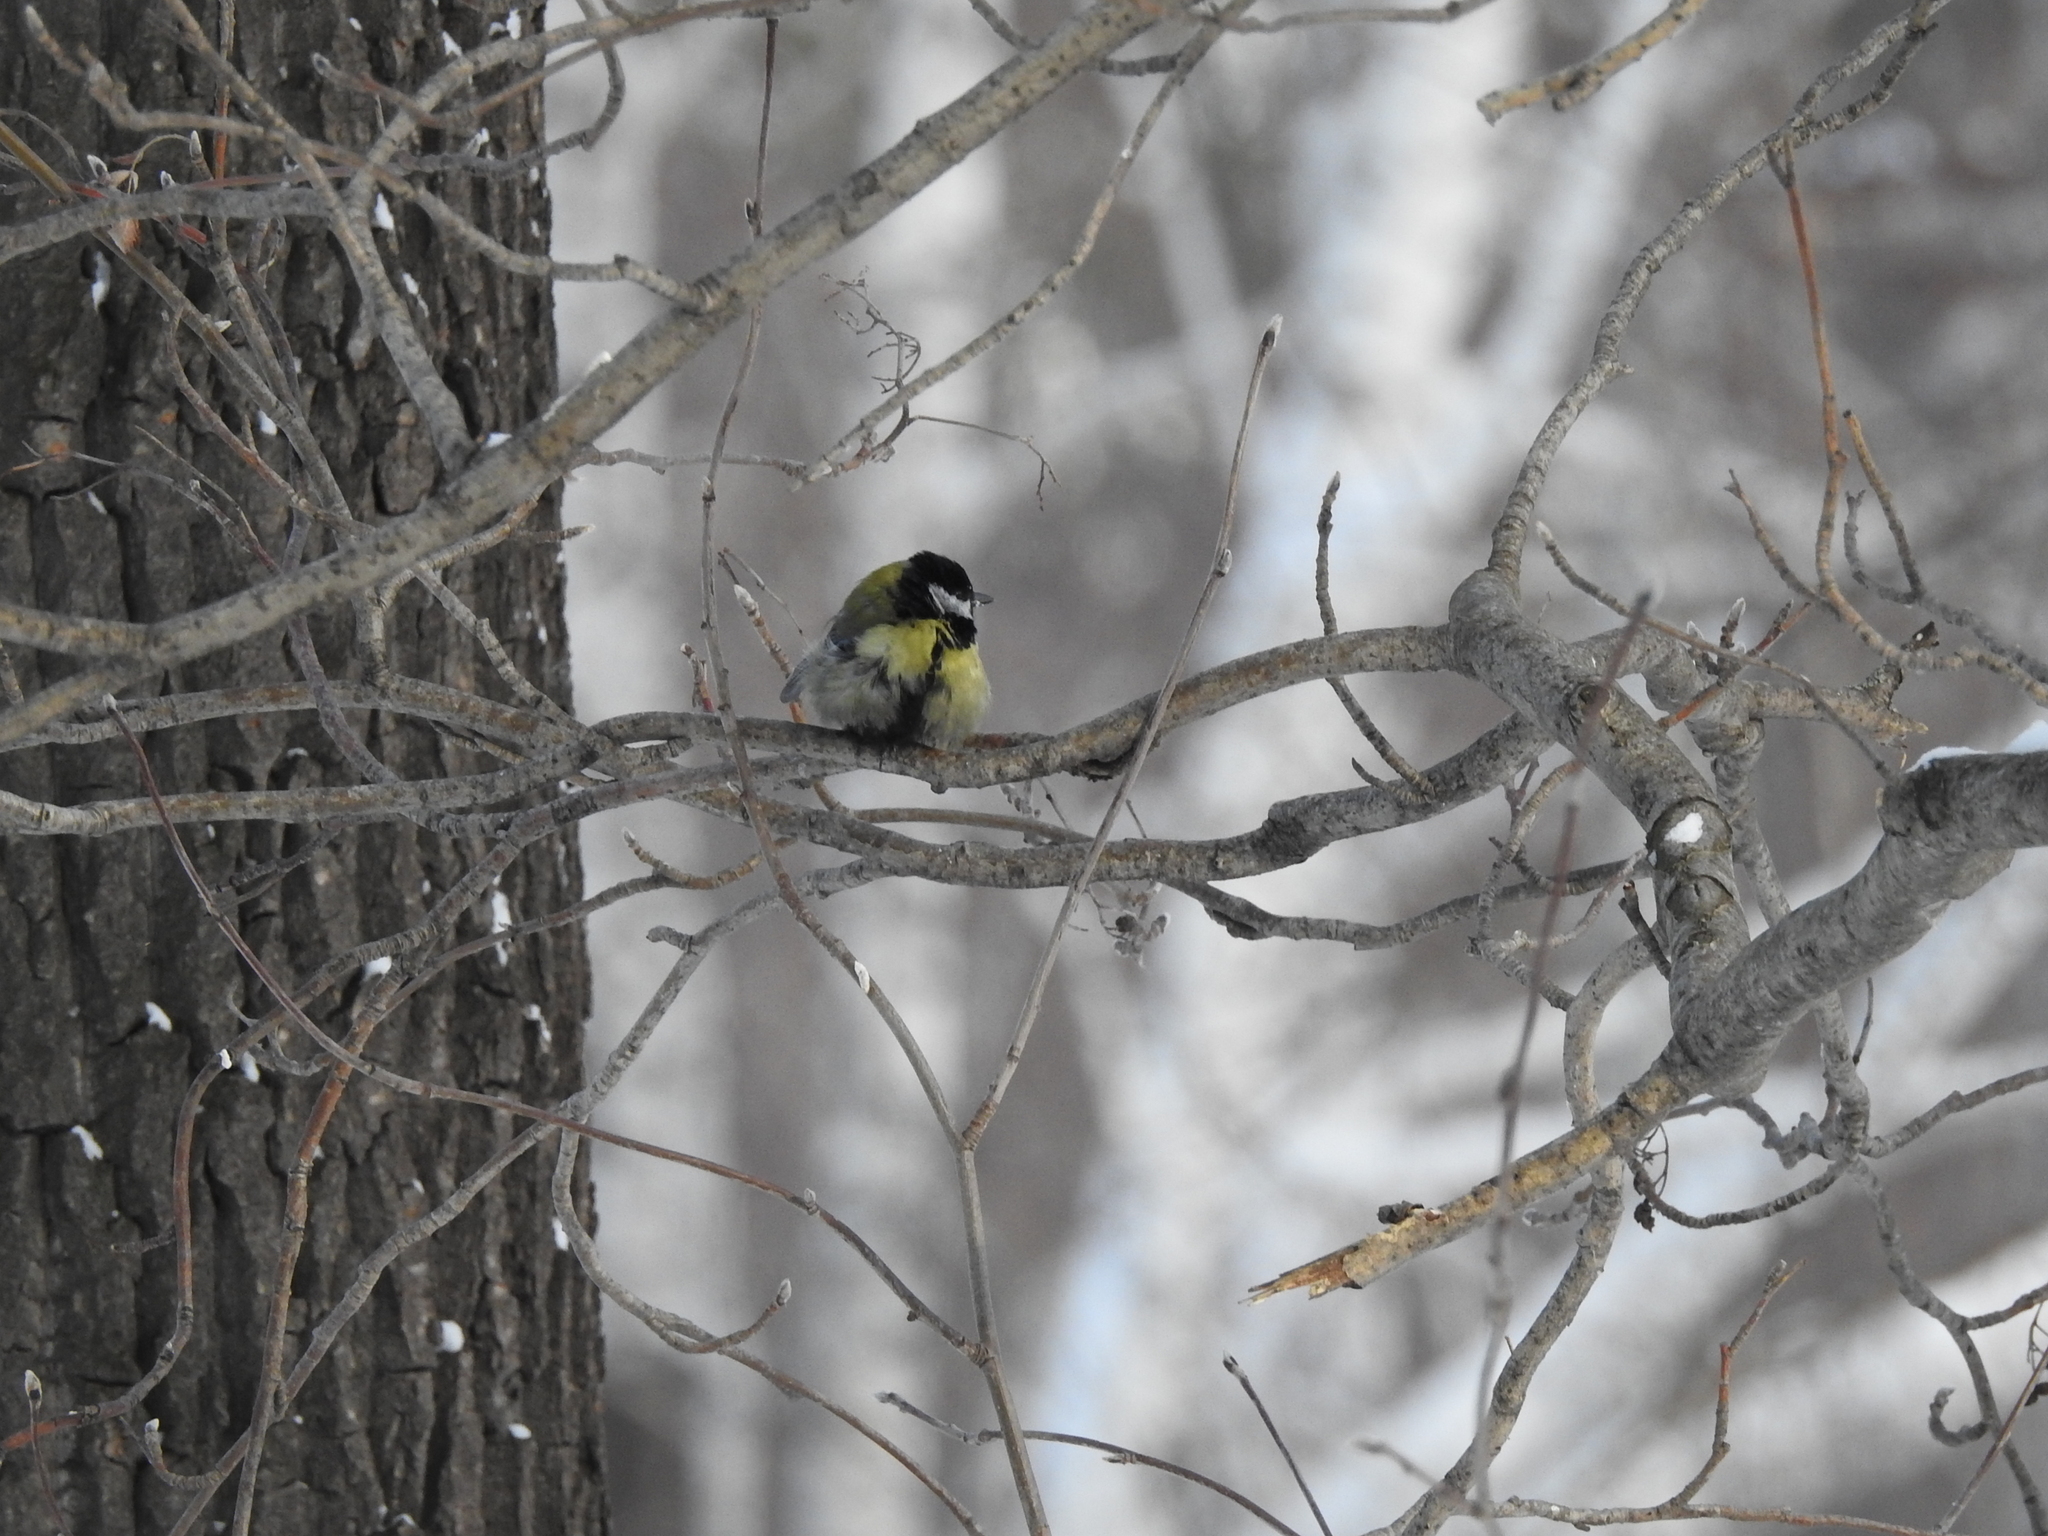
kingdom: Animalia
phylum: Chordata
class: Aves
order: Passeriformes
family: Paridae
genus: Parus
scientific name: Parus major
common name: Great tit
